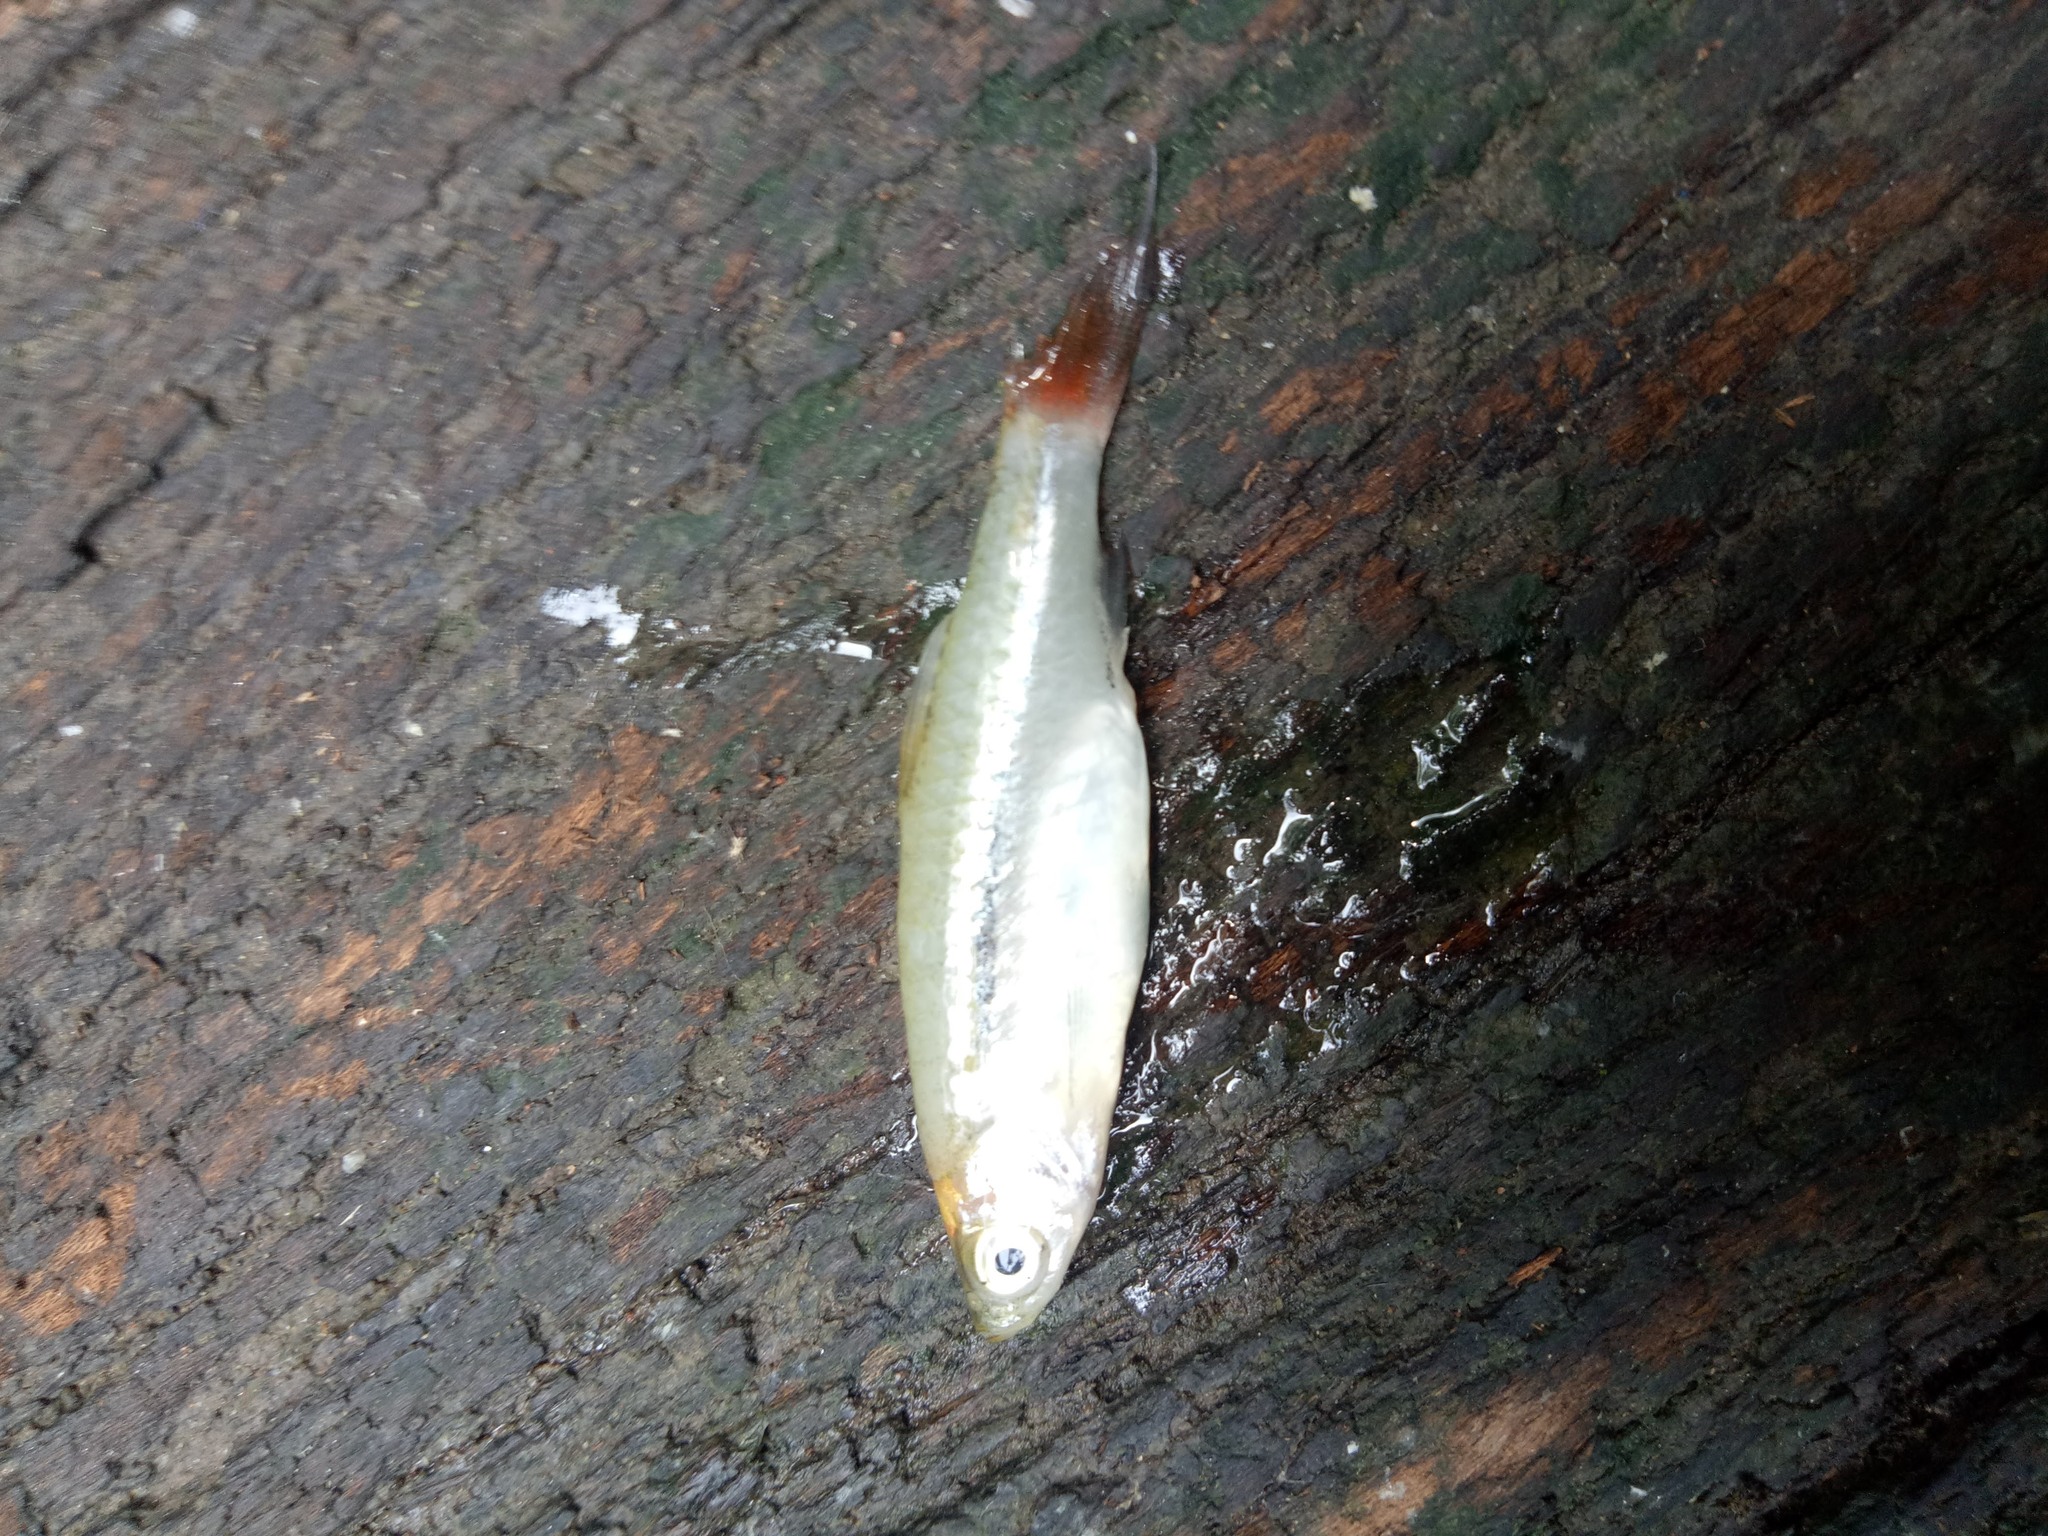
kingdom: Animalia
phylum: Chordata
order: Cypriniformes
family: Cyprinidae
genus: Rasbora
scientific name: Rasbora borapetensis
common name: Blackline rasbora
